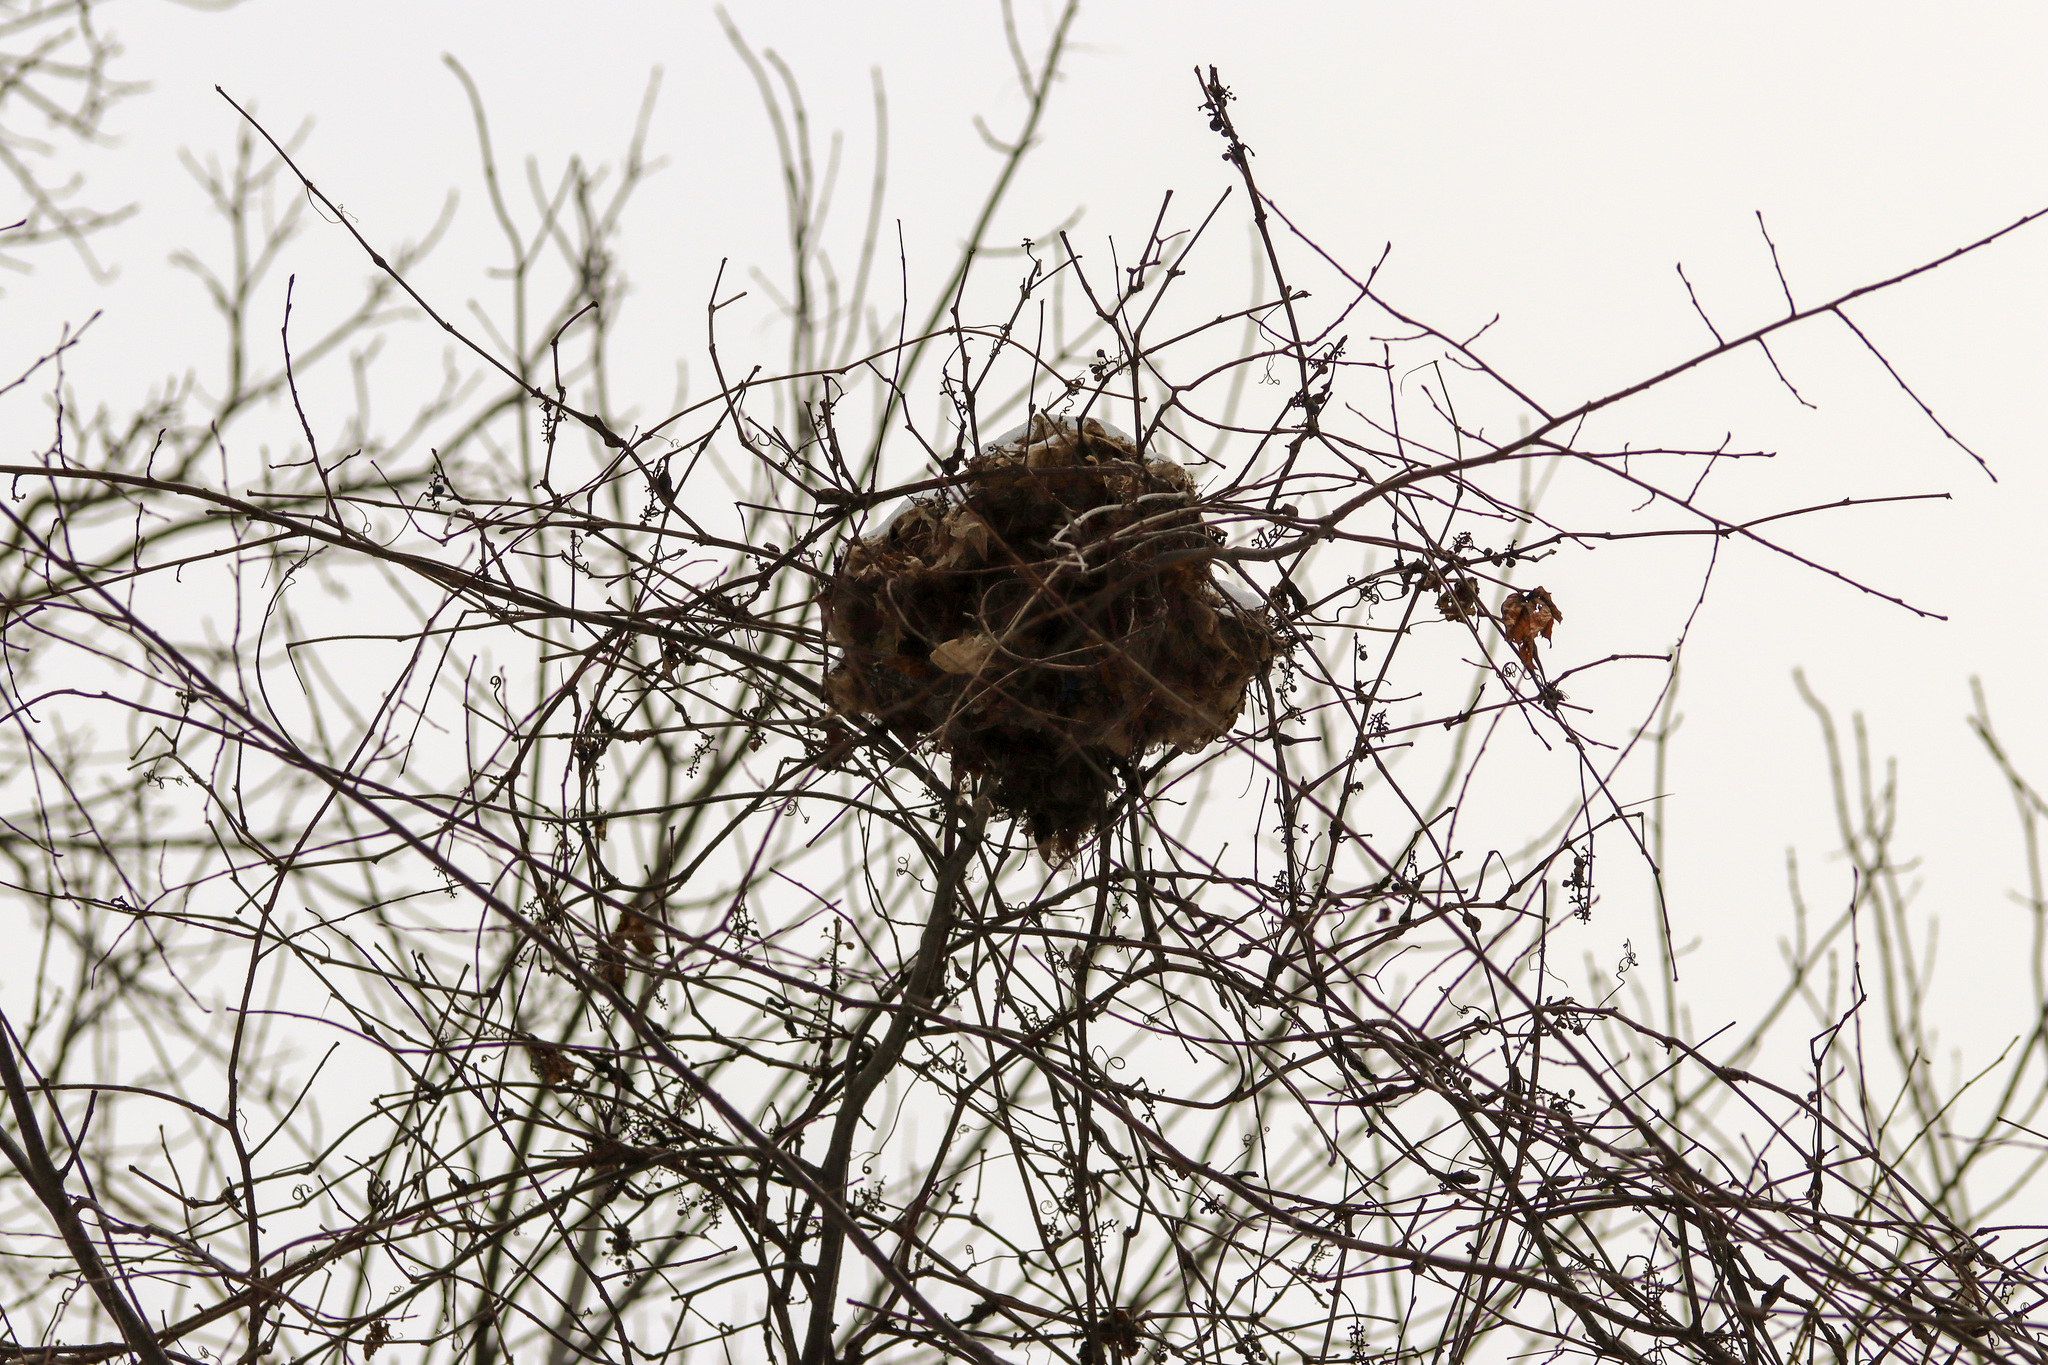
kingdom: Animalia
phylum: Chordata
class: Mammalia
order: Rodentia
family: Sciuridae
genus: Sciurus
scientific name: Sciurus carolinensis
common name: Eastern gray squirrel
